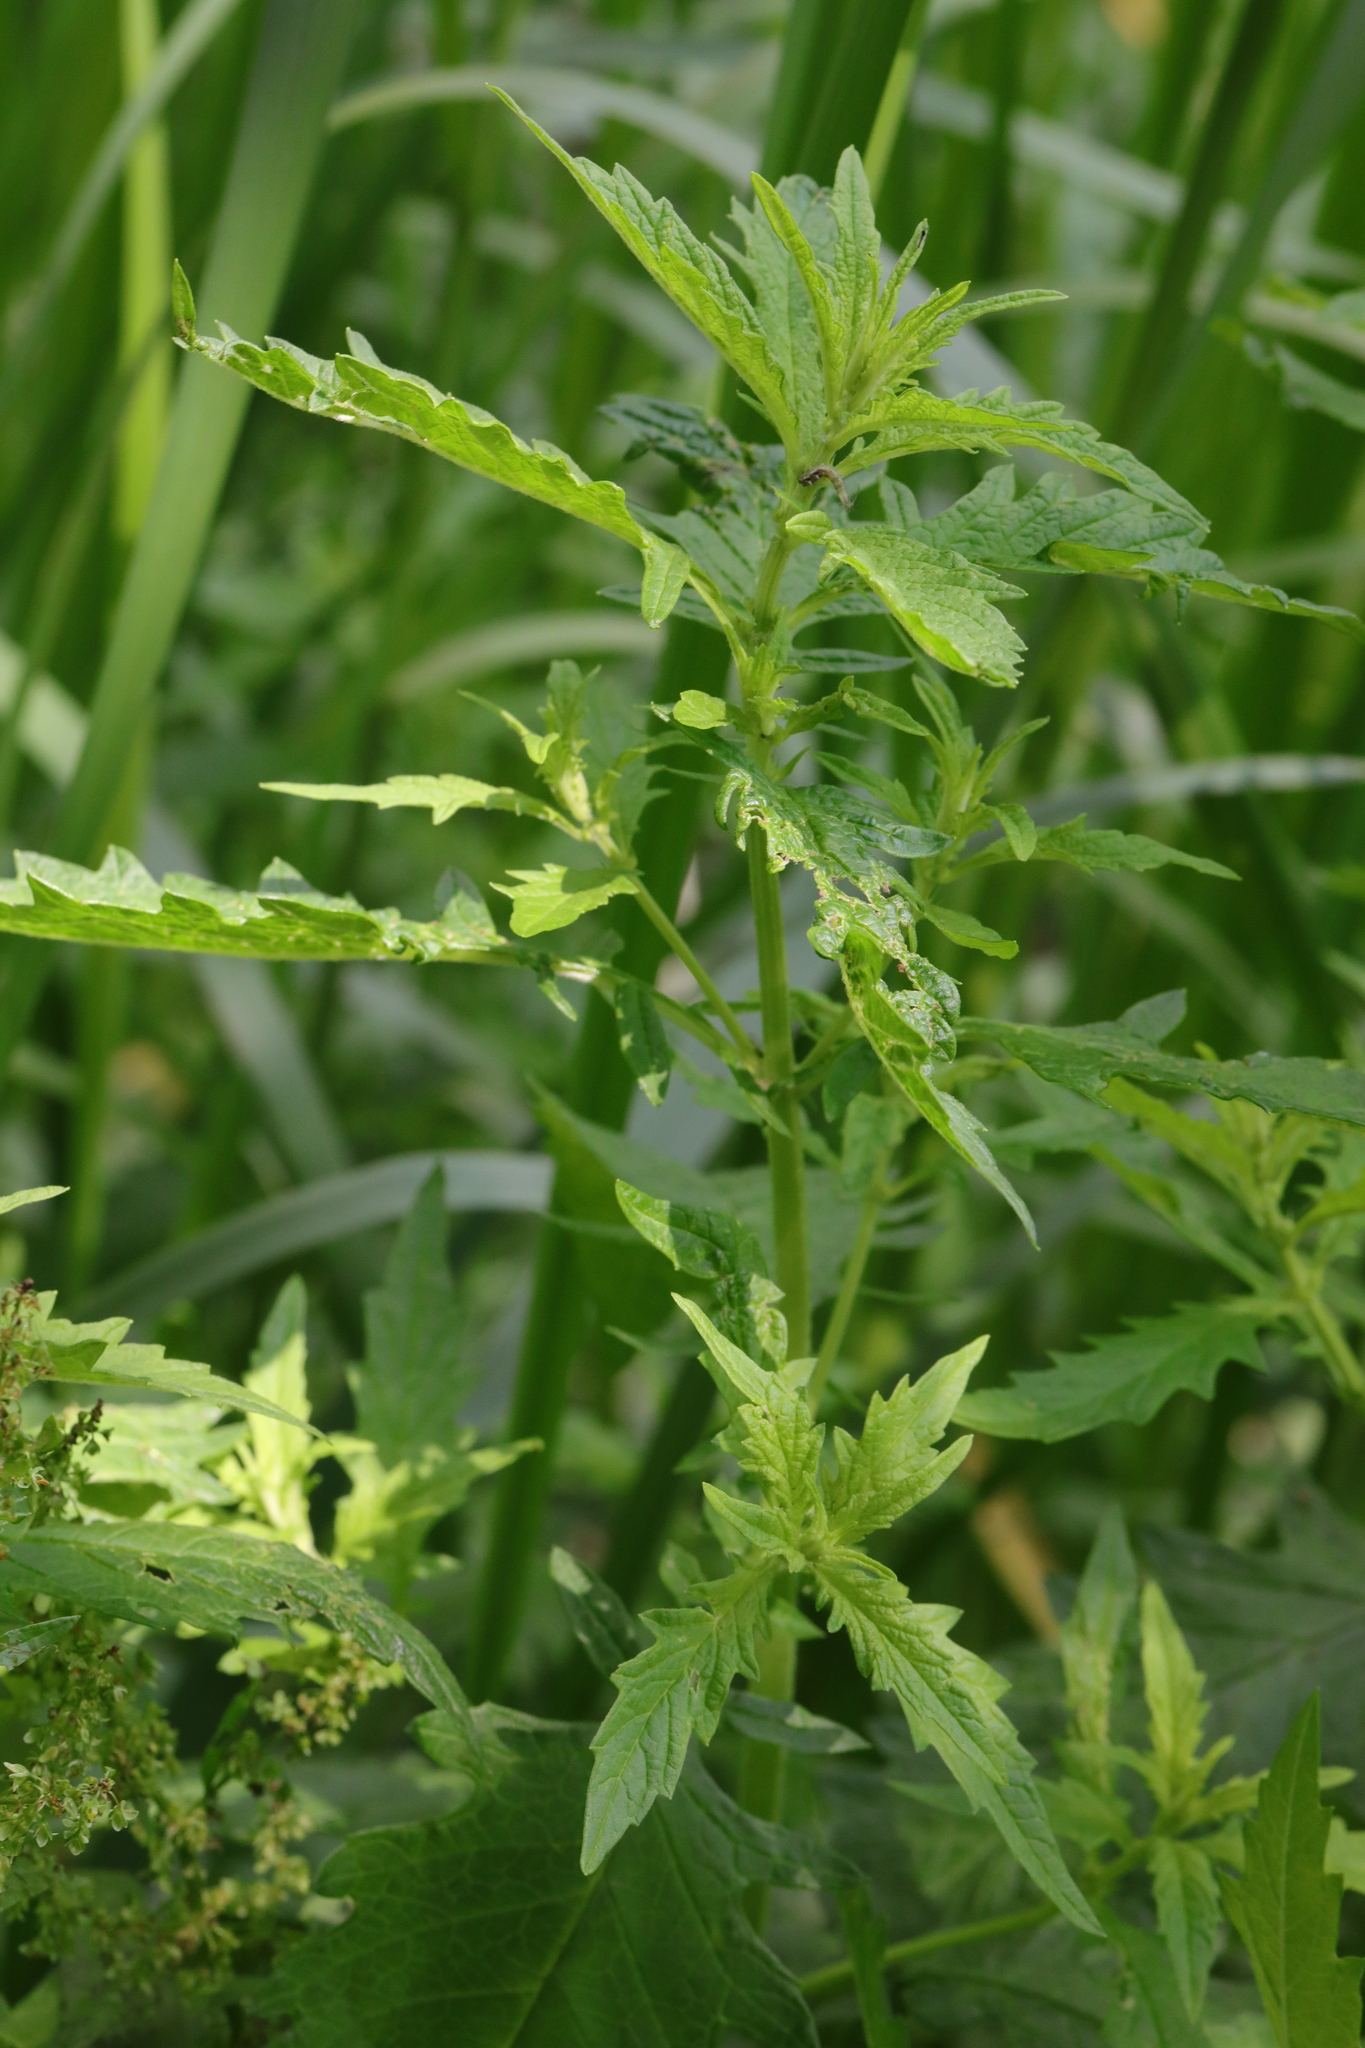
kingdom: Plantae
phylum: Tracheophyta
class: Magnoliopsida
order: Lamiales
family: Lamiaceae
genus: Lycopus
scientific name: Lycopus europaeus
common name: European bugleweed
